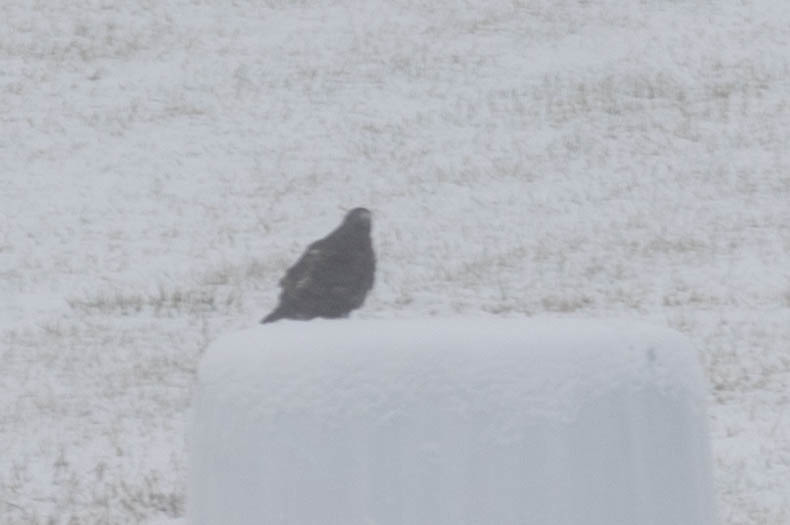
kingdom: Animalia
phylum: Chordata
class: Aves
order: Accipitriformes
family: Accipitridae
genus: Buteo
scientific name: Buteo jamaicensis
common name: Red-tailed hawk
